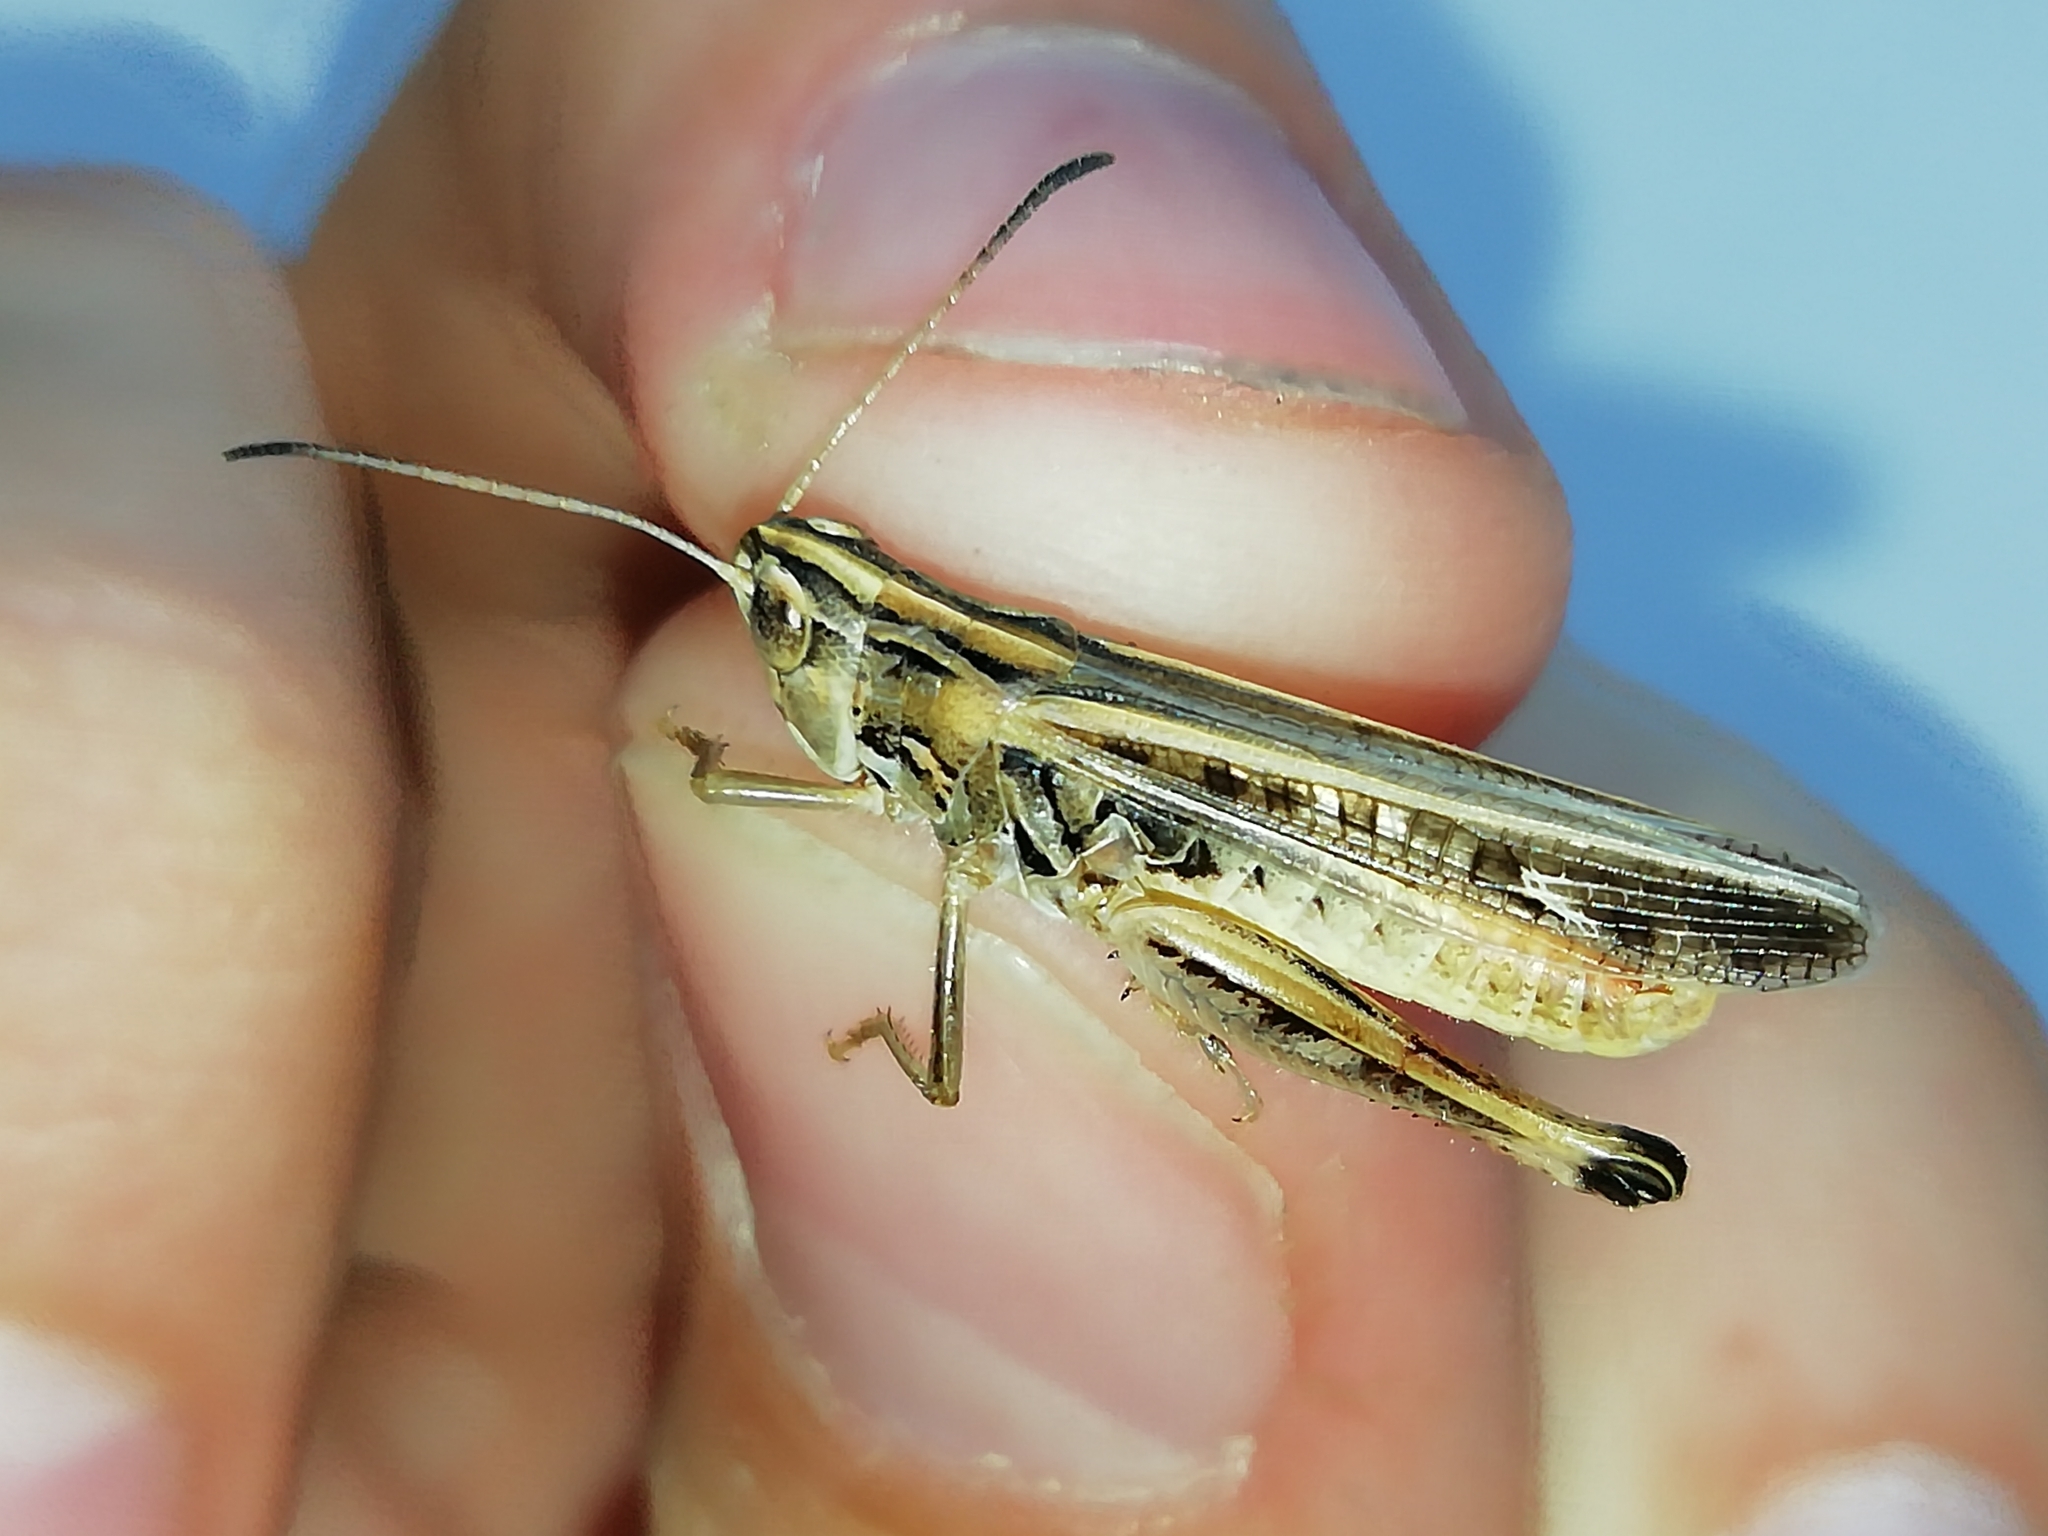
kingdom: Animalia
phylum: Arthropoda
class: Insecta
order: Orthoptera
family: Acrididae
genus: Stenobothrus
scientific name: Stenobothrus eurasius
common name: Eurasian toothed grasshopper
